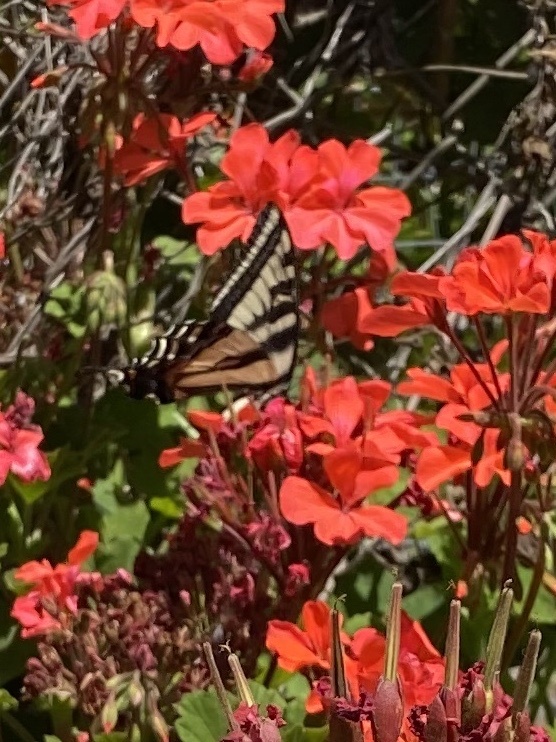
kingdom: Animalia
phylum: Arthropoda
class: Insecta
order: Lepidoptera
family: Papilionidae
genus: Papilio
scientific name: Papilio eurymedon
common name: Pale tiger swallowtail
